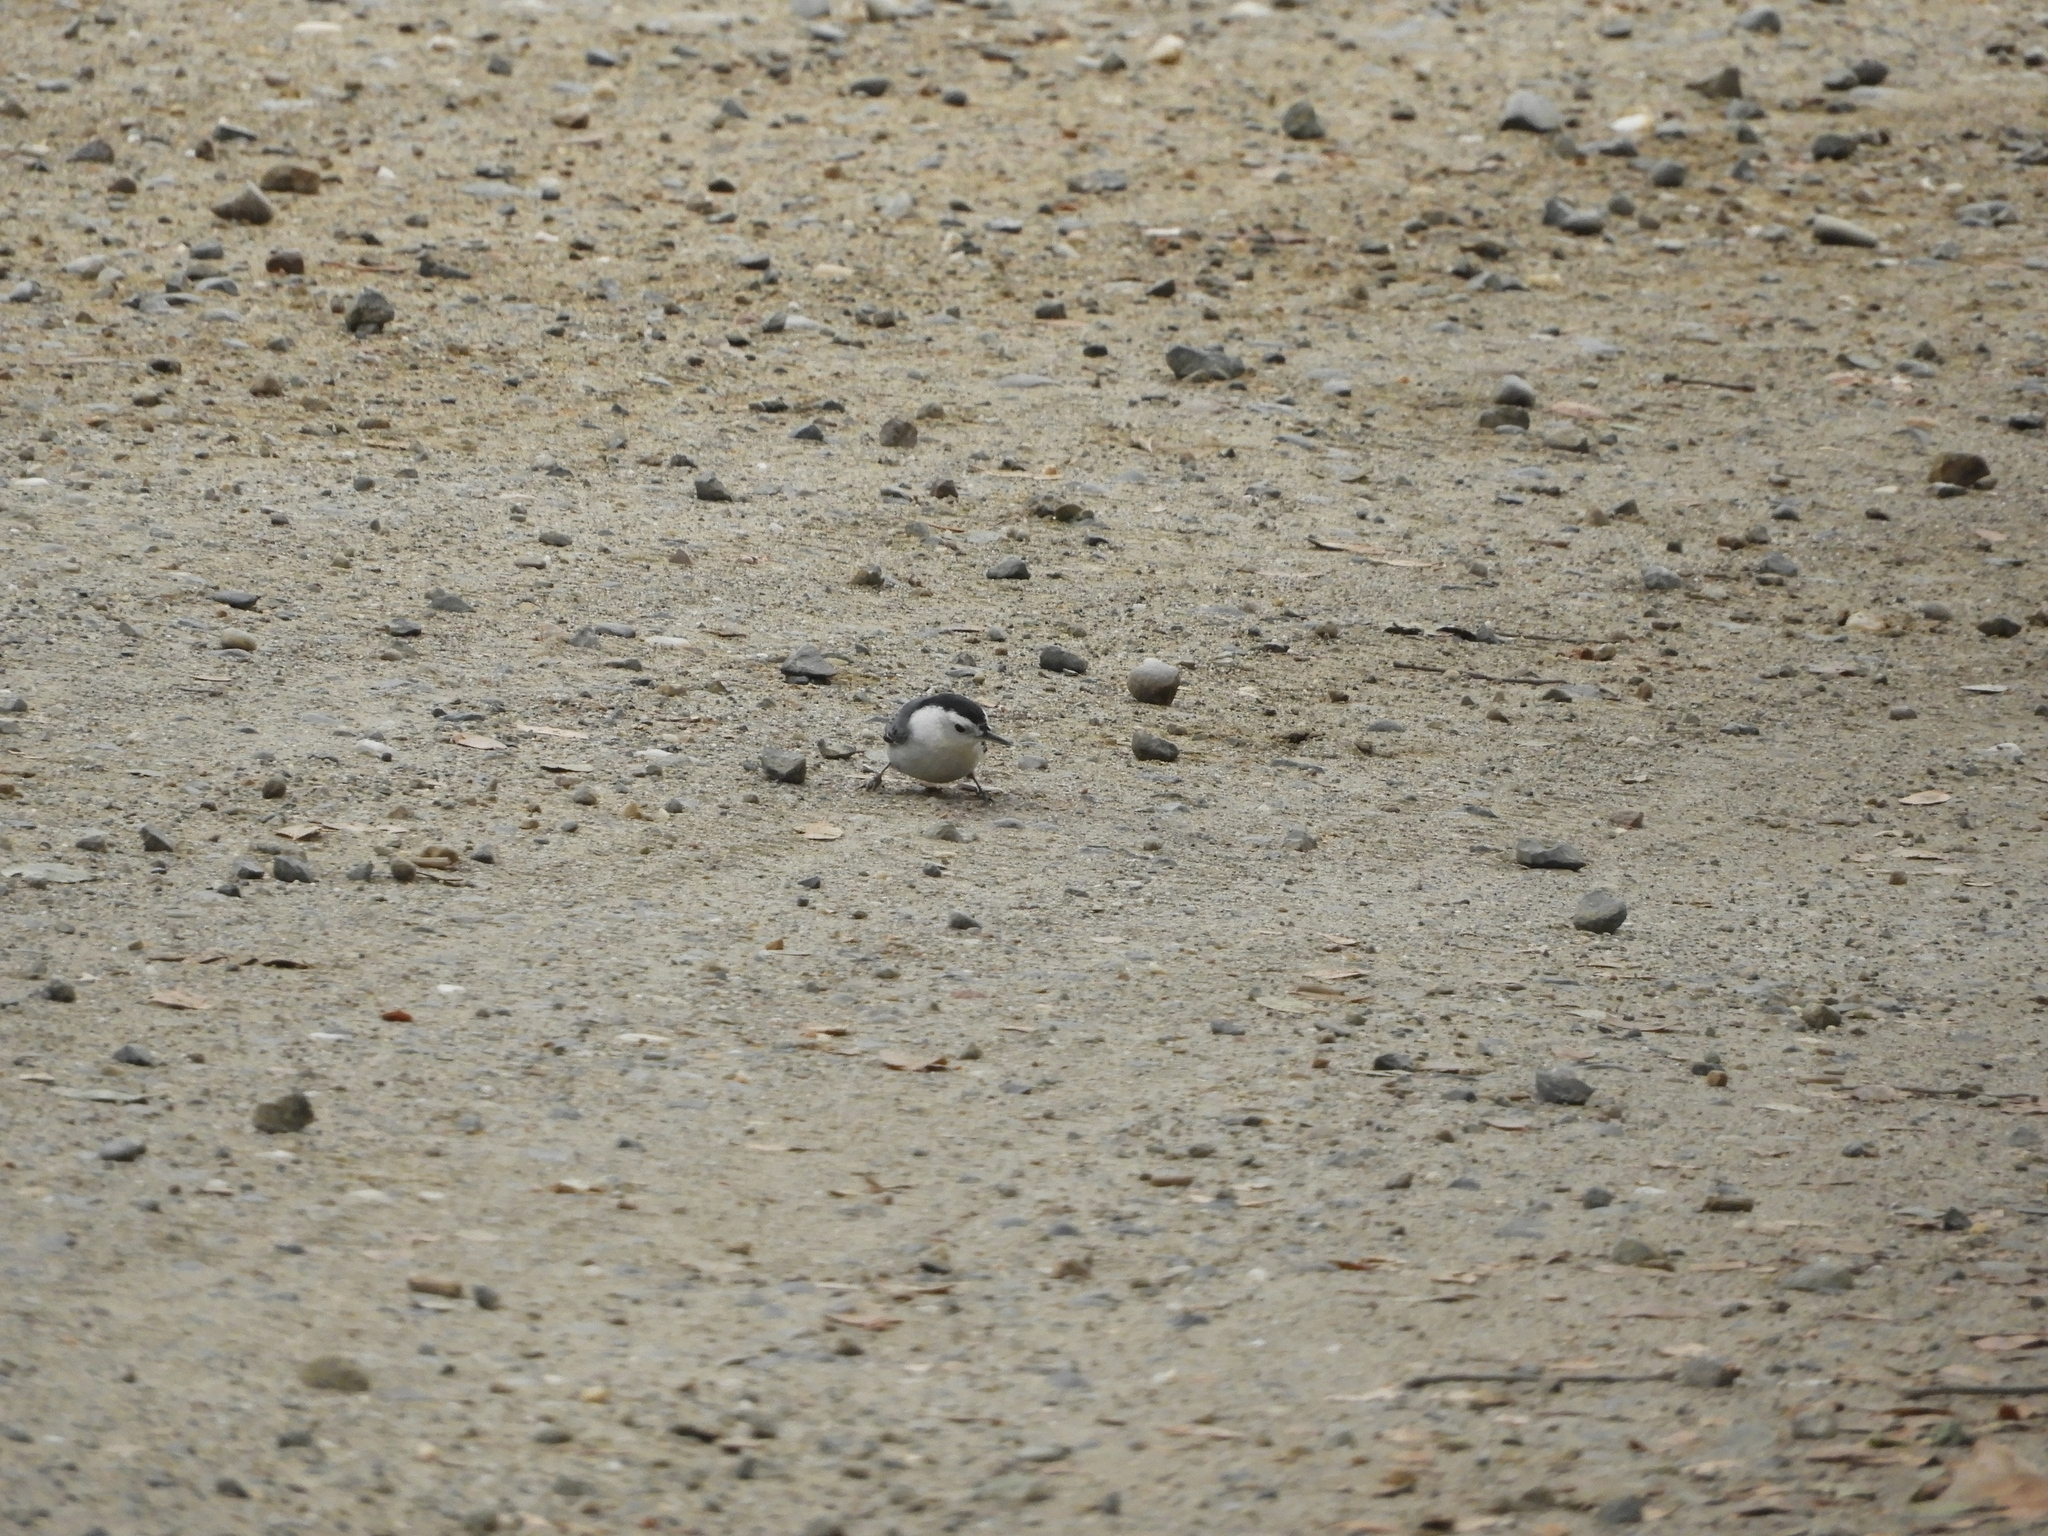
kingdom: Animalia
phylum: Chordata
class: Aves
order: Passeriformes
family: Sittidae
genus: Sitta
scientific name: Sitta carolinensis
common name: White-breasted nuthatch
